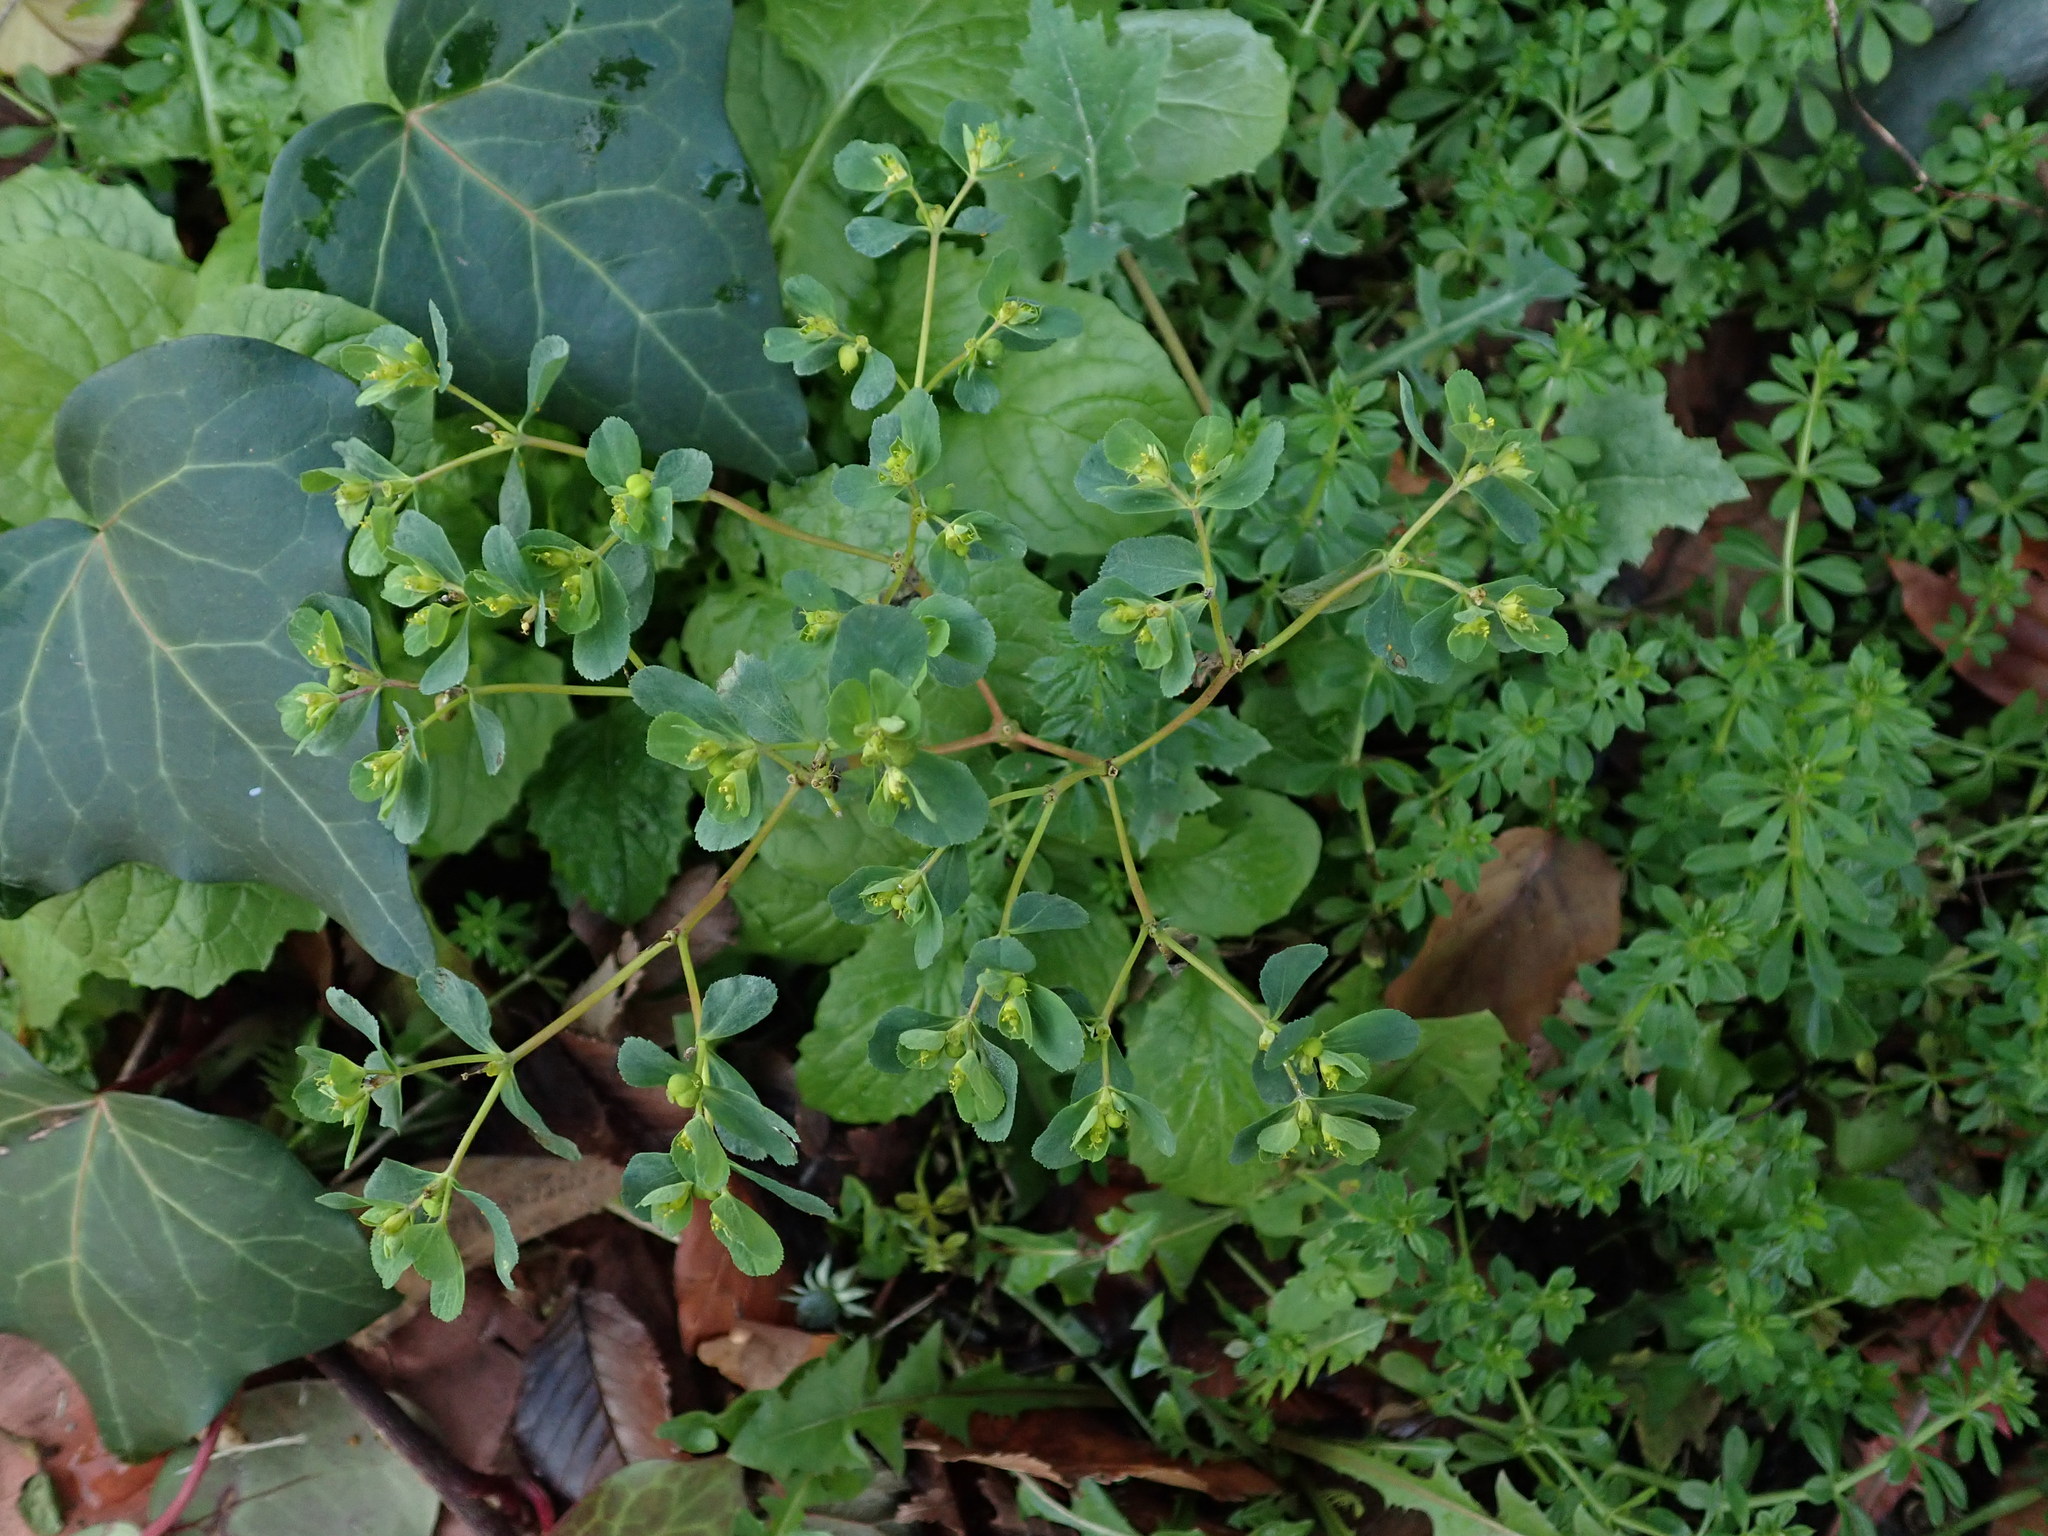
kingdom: Plantae
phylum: Tracheophyta
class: Magnoliopsida
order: Malpighiales
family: Euphorbiaceae
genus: Euphorbia
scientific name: Euphorbia helioscopia
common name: Sun spurge
